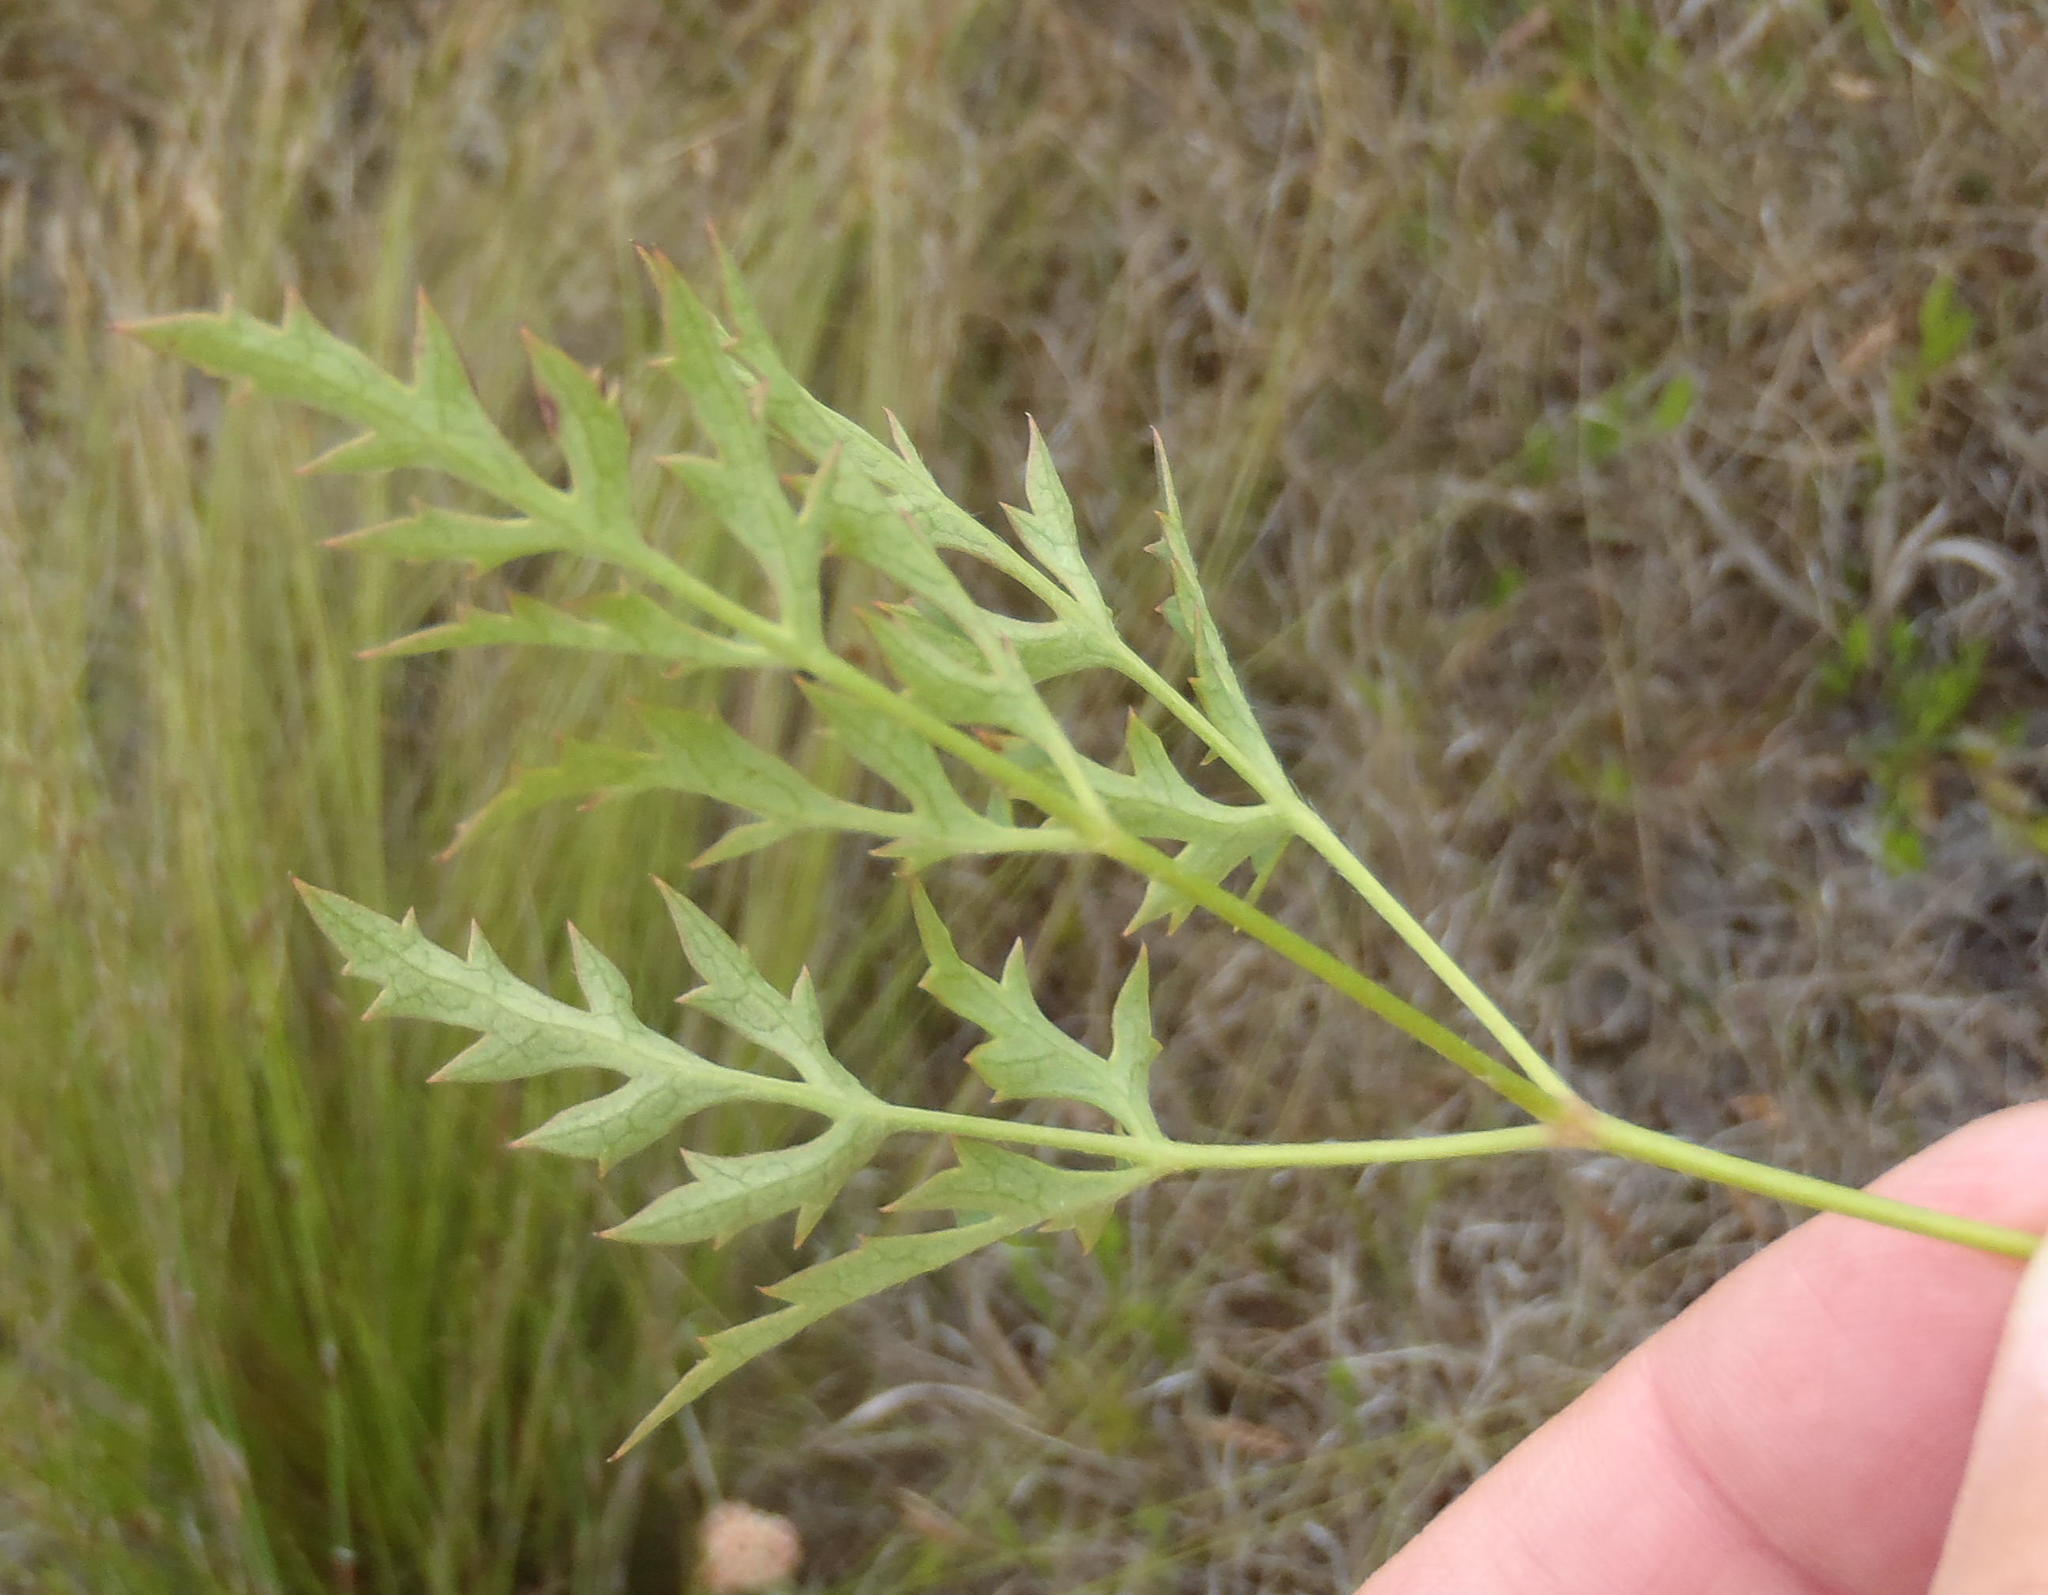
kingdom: Plantae
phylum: Tracheophyta
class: Magnoliopsida
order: Ranunculales
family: Ranunculaceae
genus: Knowltonia
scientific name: Knowltonia filia
